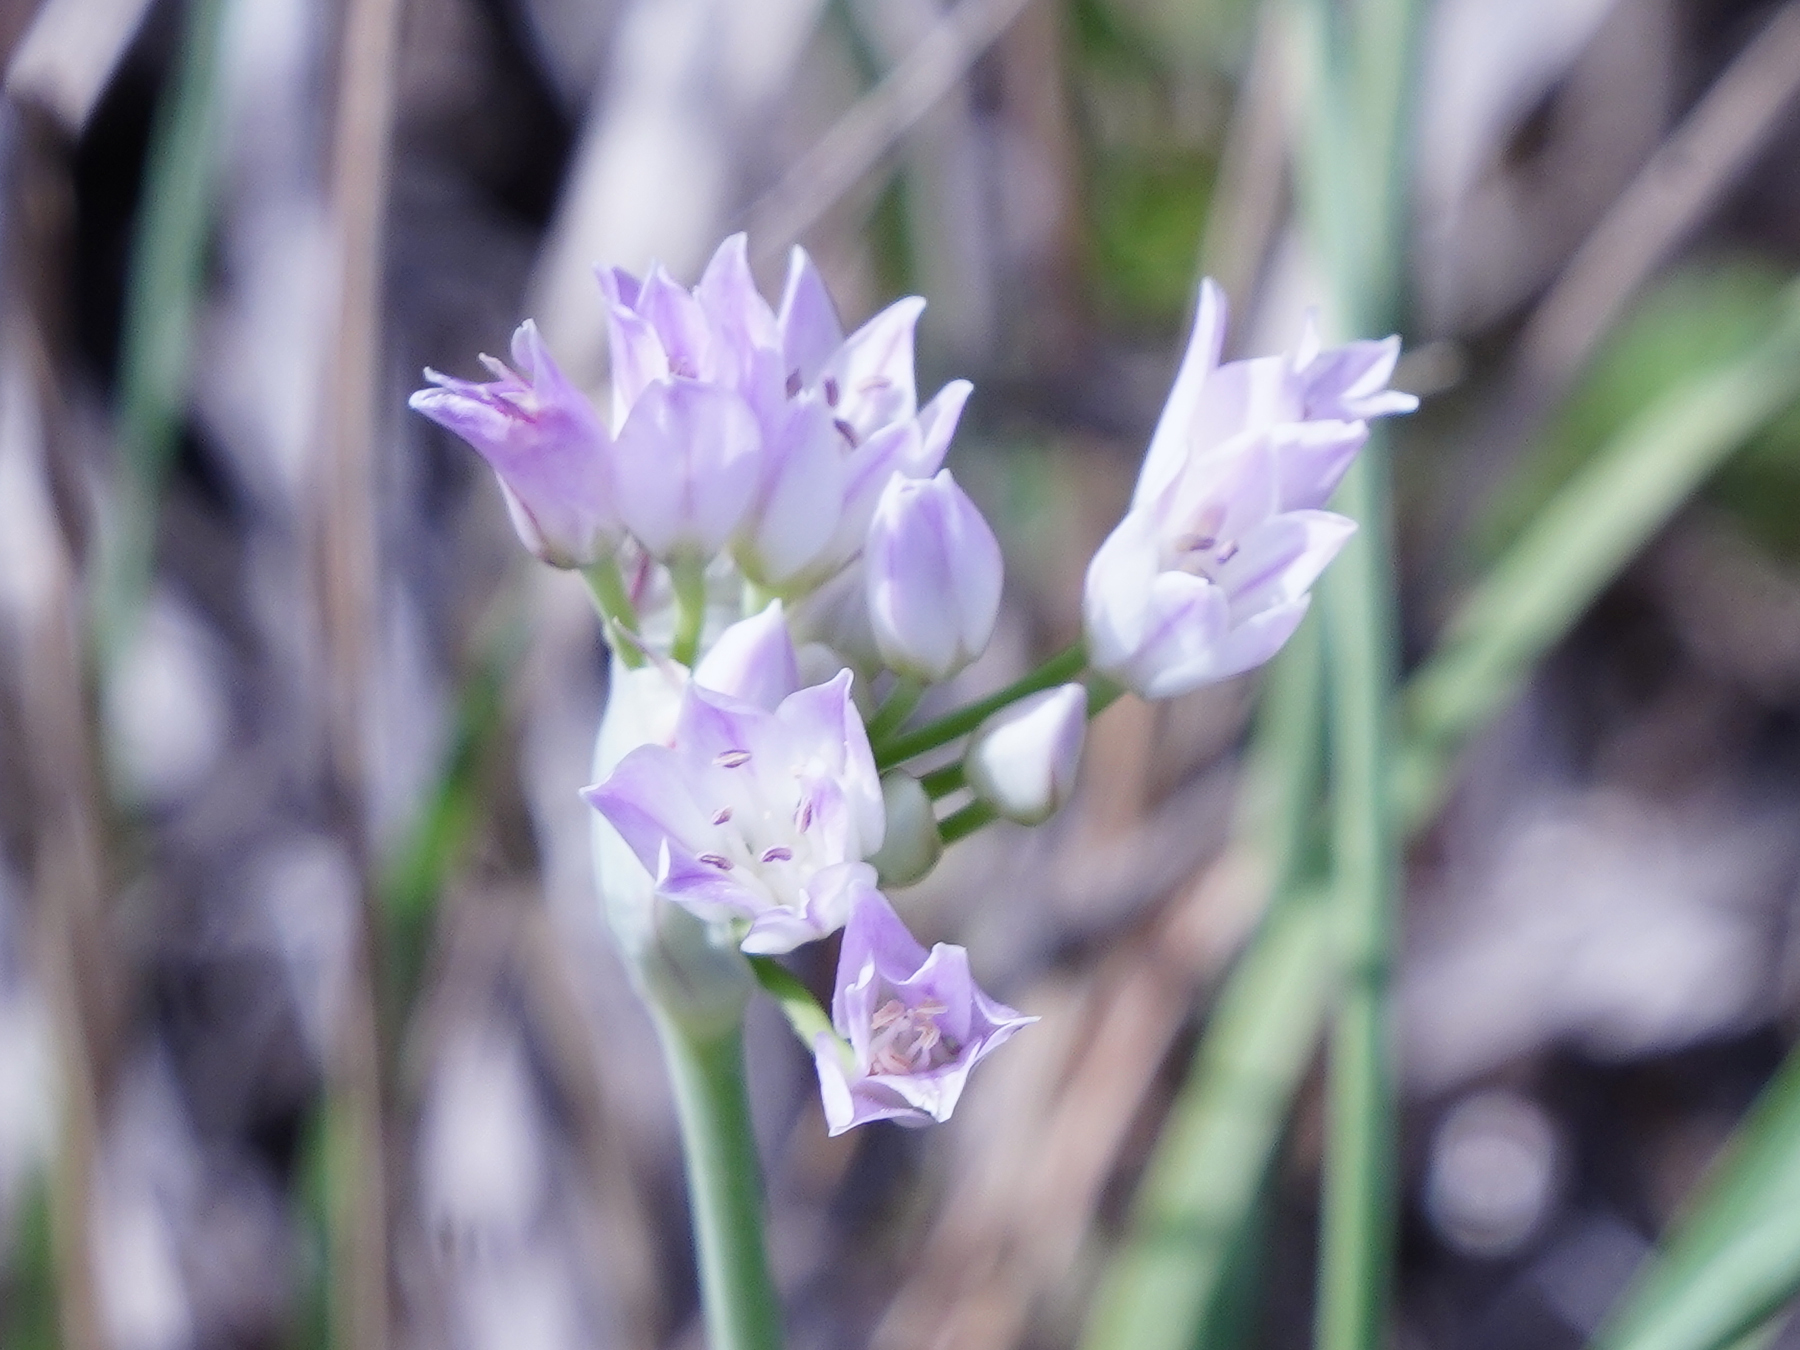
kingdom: Plantae
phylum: Tracheophyta
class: Liliopsida
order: Asparagales
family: Amaryllidaceae
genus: Allium
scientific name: Allium drummondii
